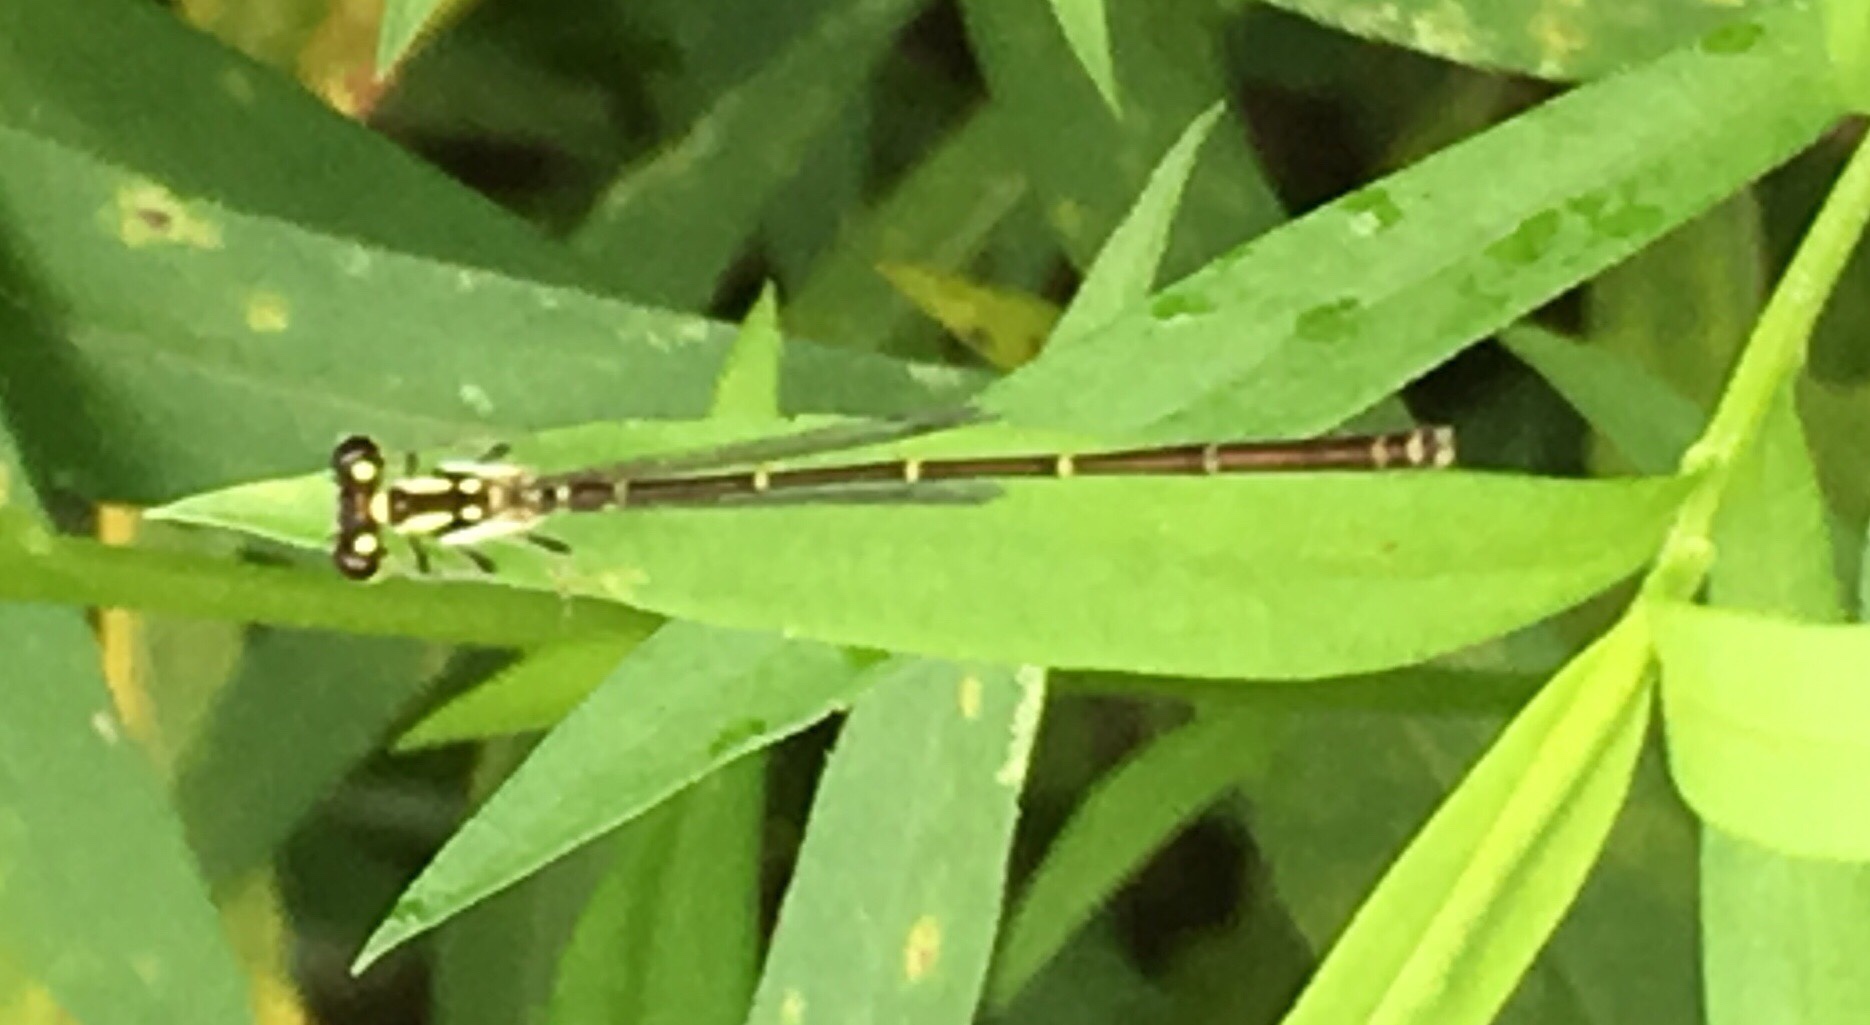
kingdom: Animalia
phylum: Arthropoda
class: Insecta
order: Odonata
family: Coenagrionidae
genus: Ischnura
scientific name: Ischnura posita
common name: Fragile forktail
